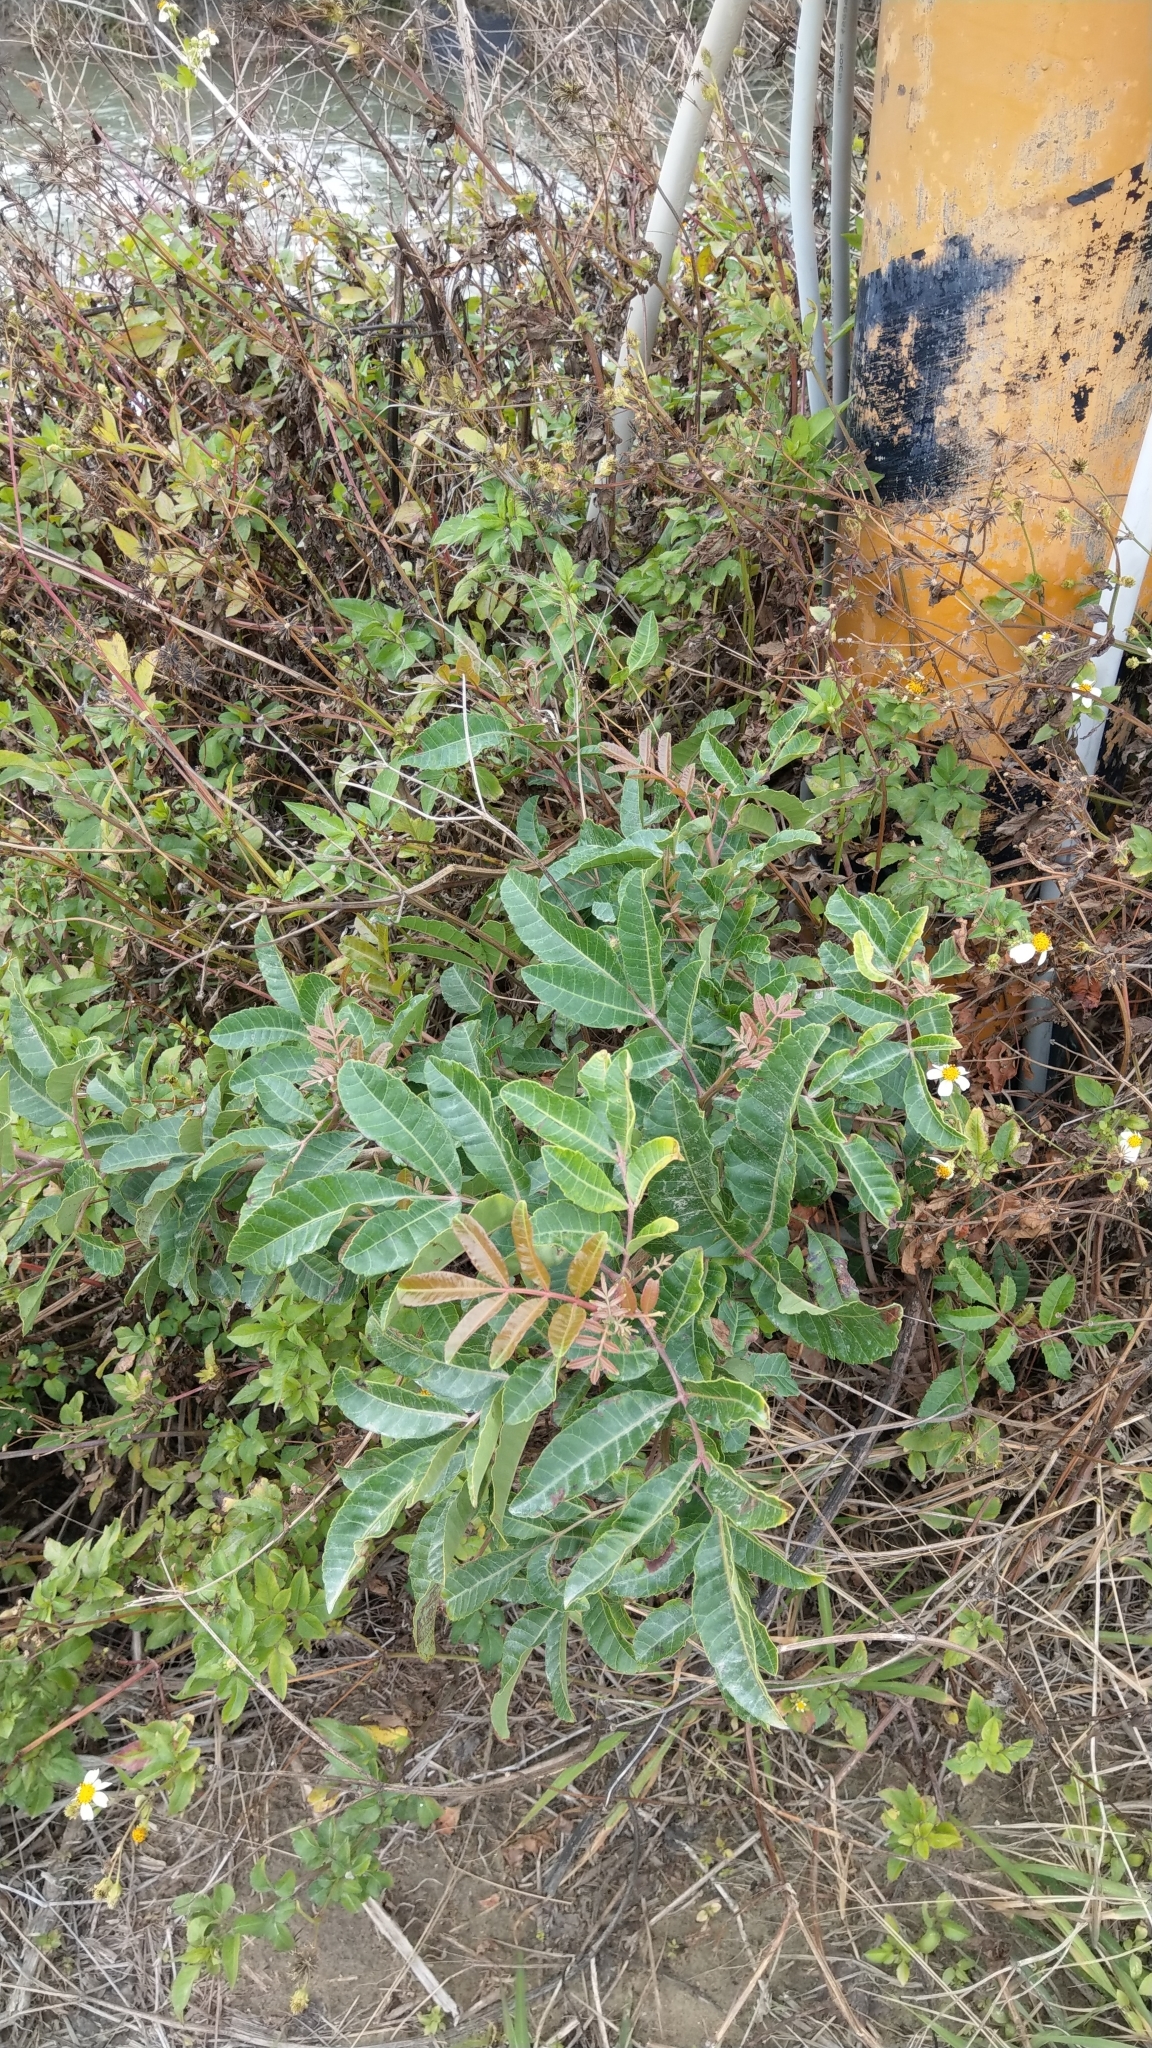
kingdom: Plantae
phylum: Tracheophyta
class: Magnoliopsida
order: Sapindales
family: Anacardiaceae
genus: Schinus
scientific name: Schinus terebinthifolia
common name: Brazilian peppertree
